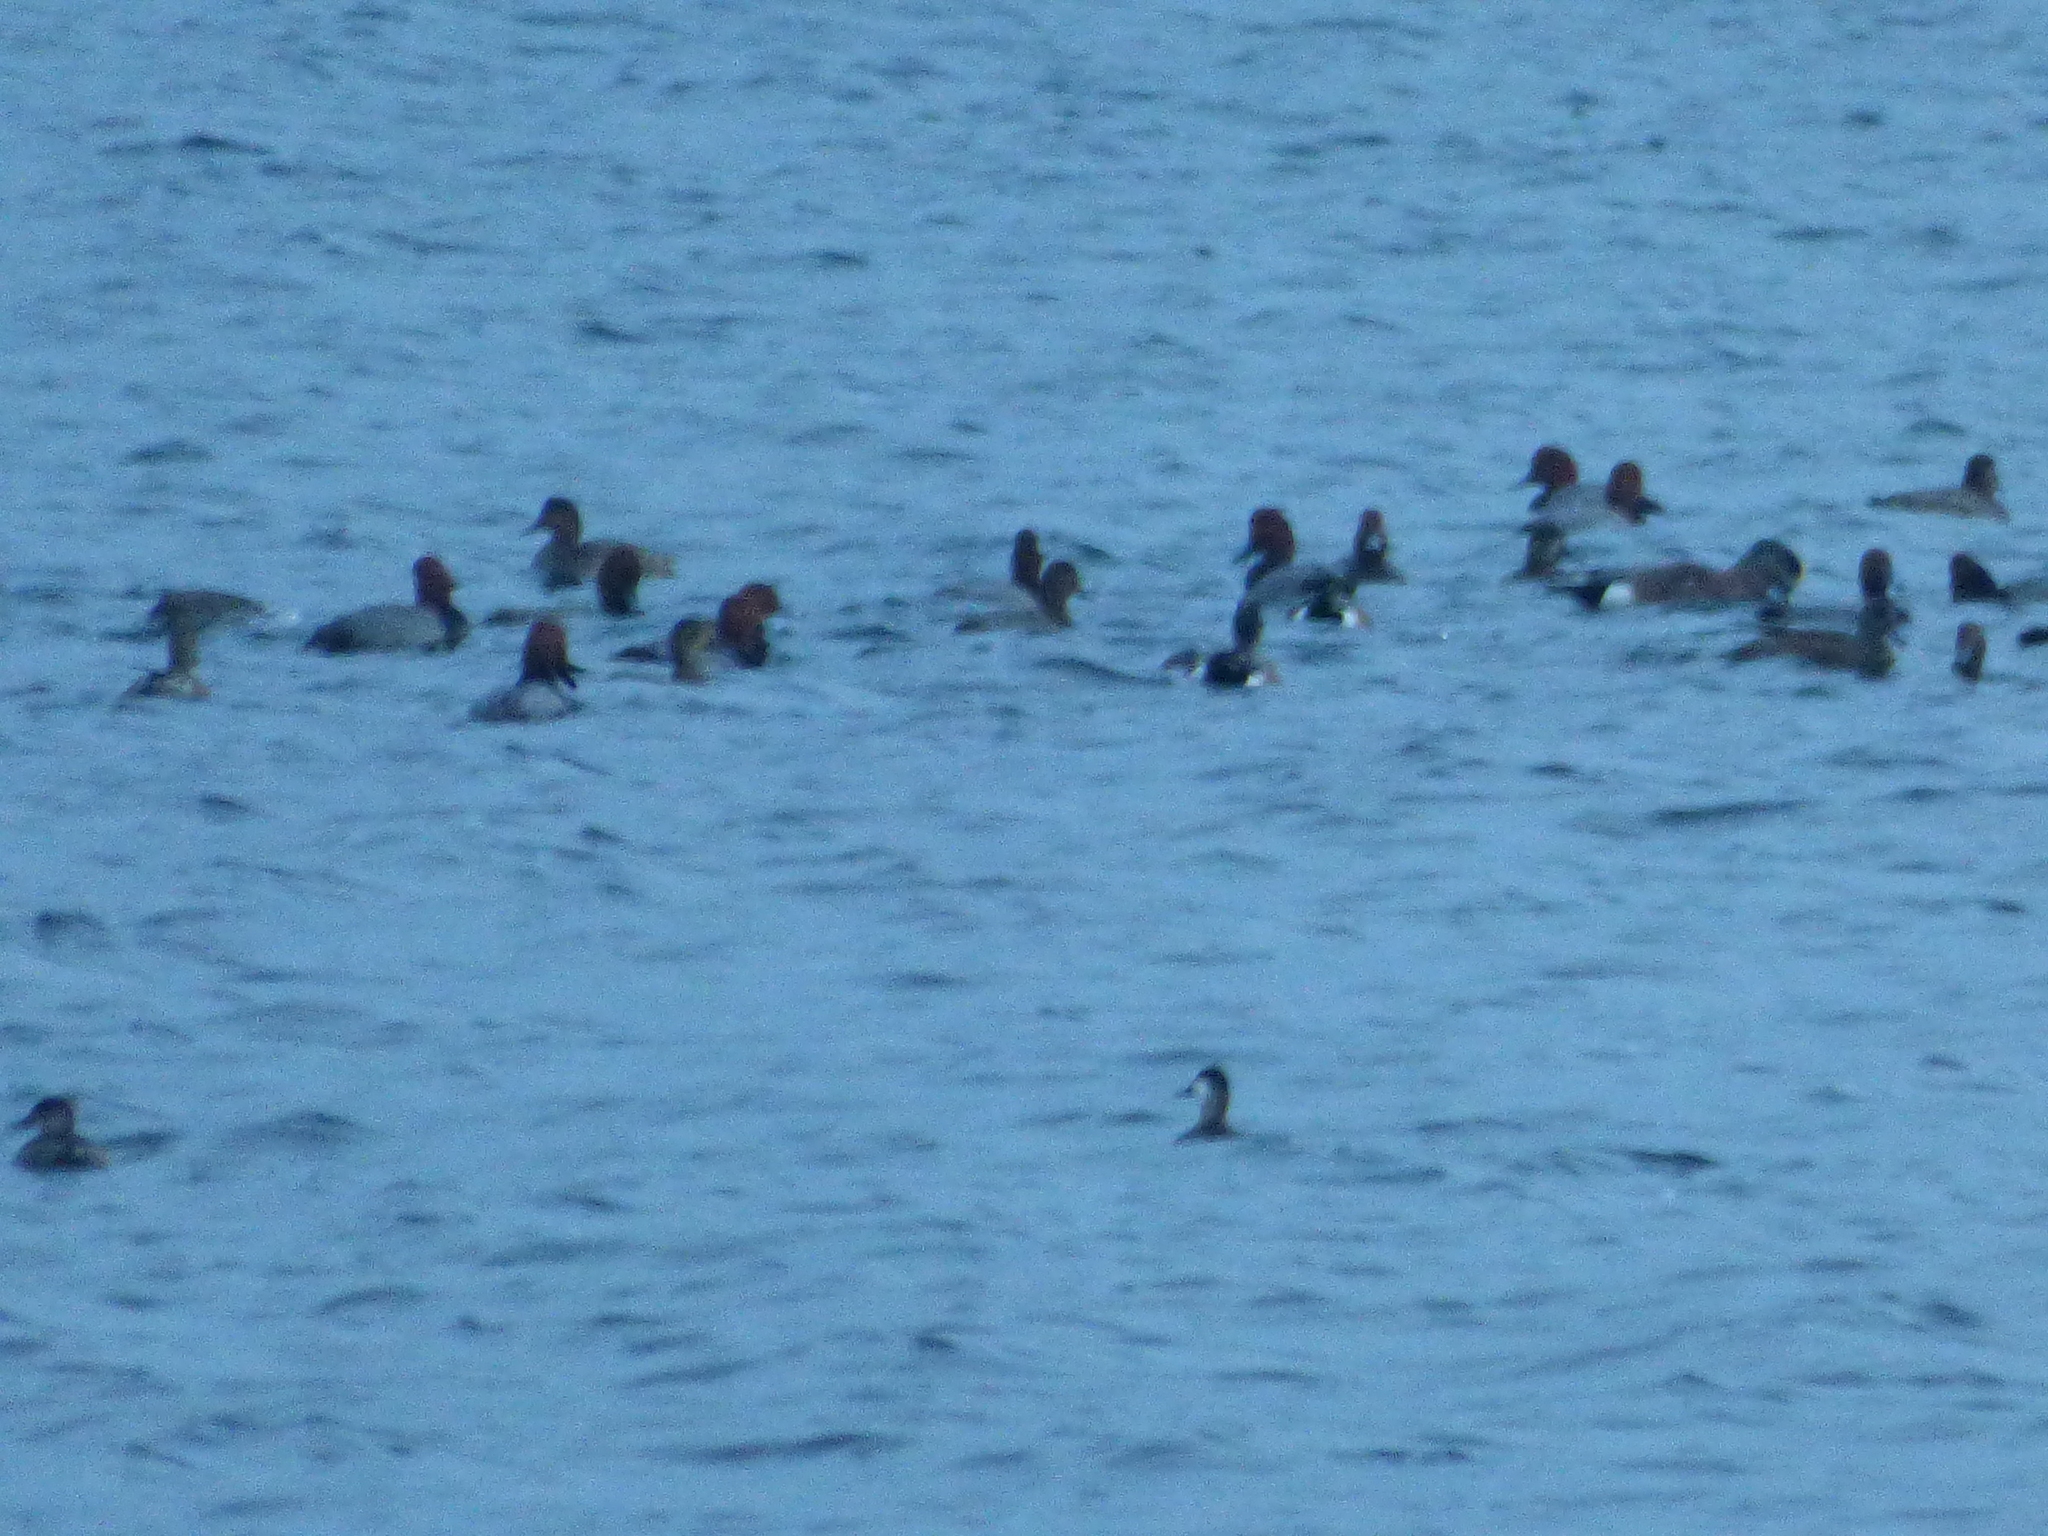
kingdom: Animalia
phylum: Chordata
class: Aves
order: Anseriformes
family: Anatidae
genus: Oxyura
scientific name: Oxyura jamaicensis
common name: Ruddy duck
